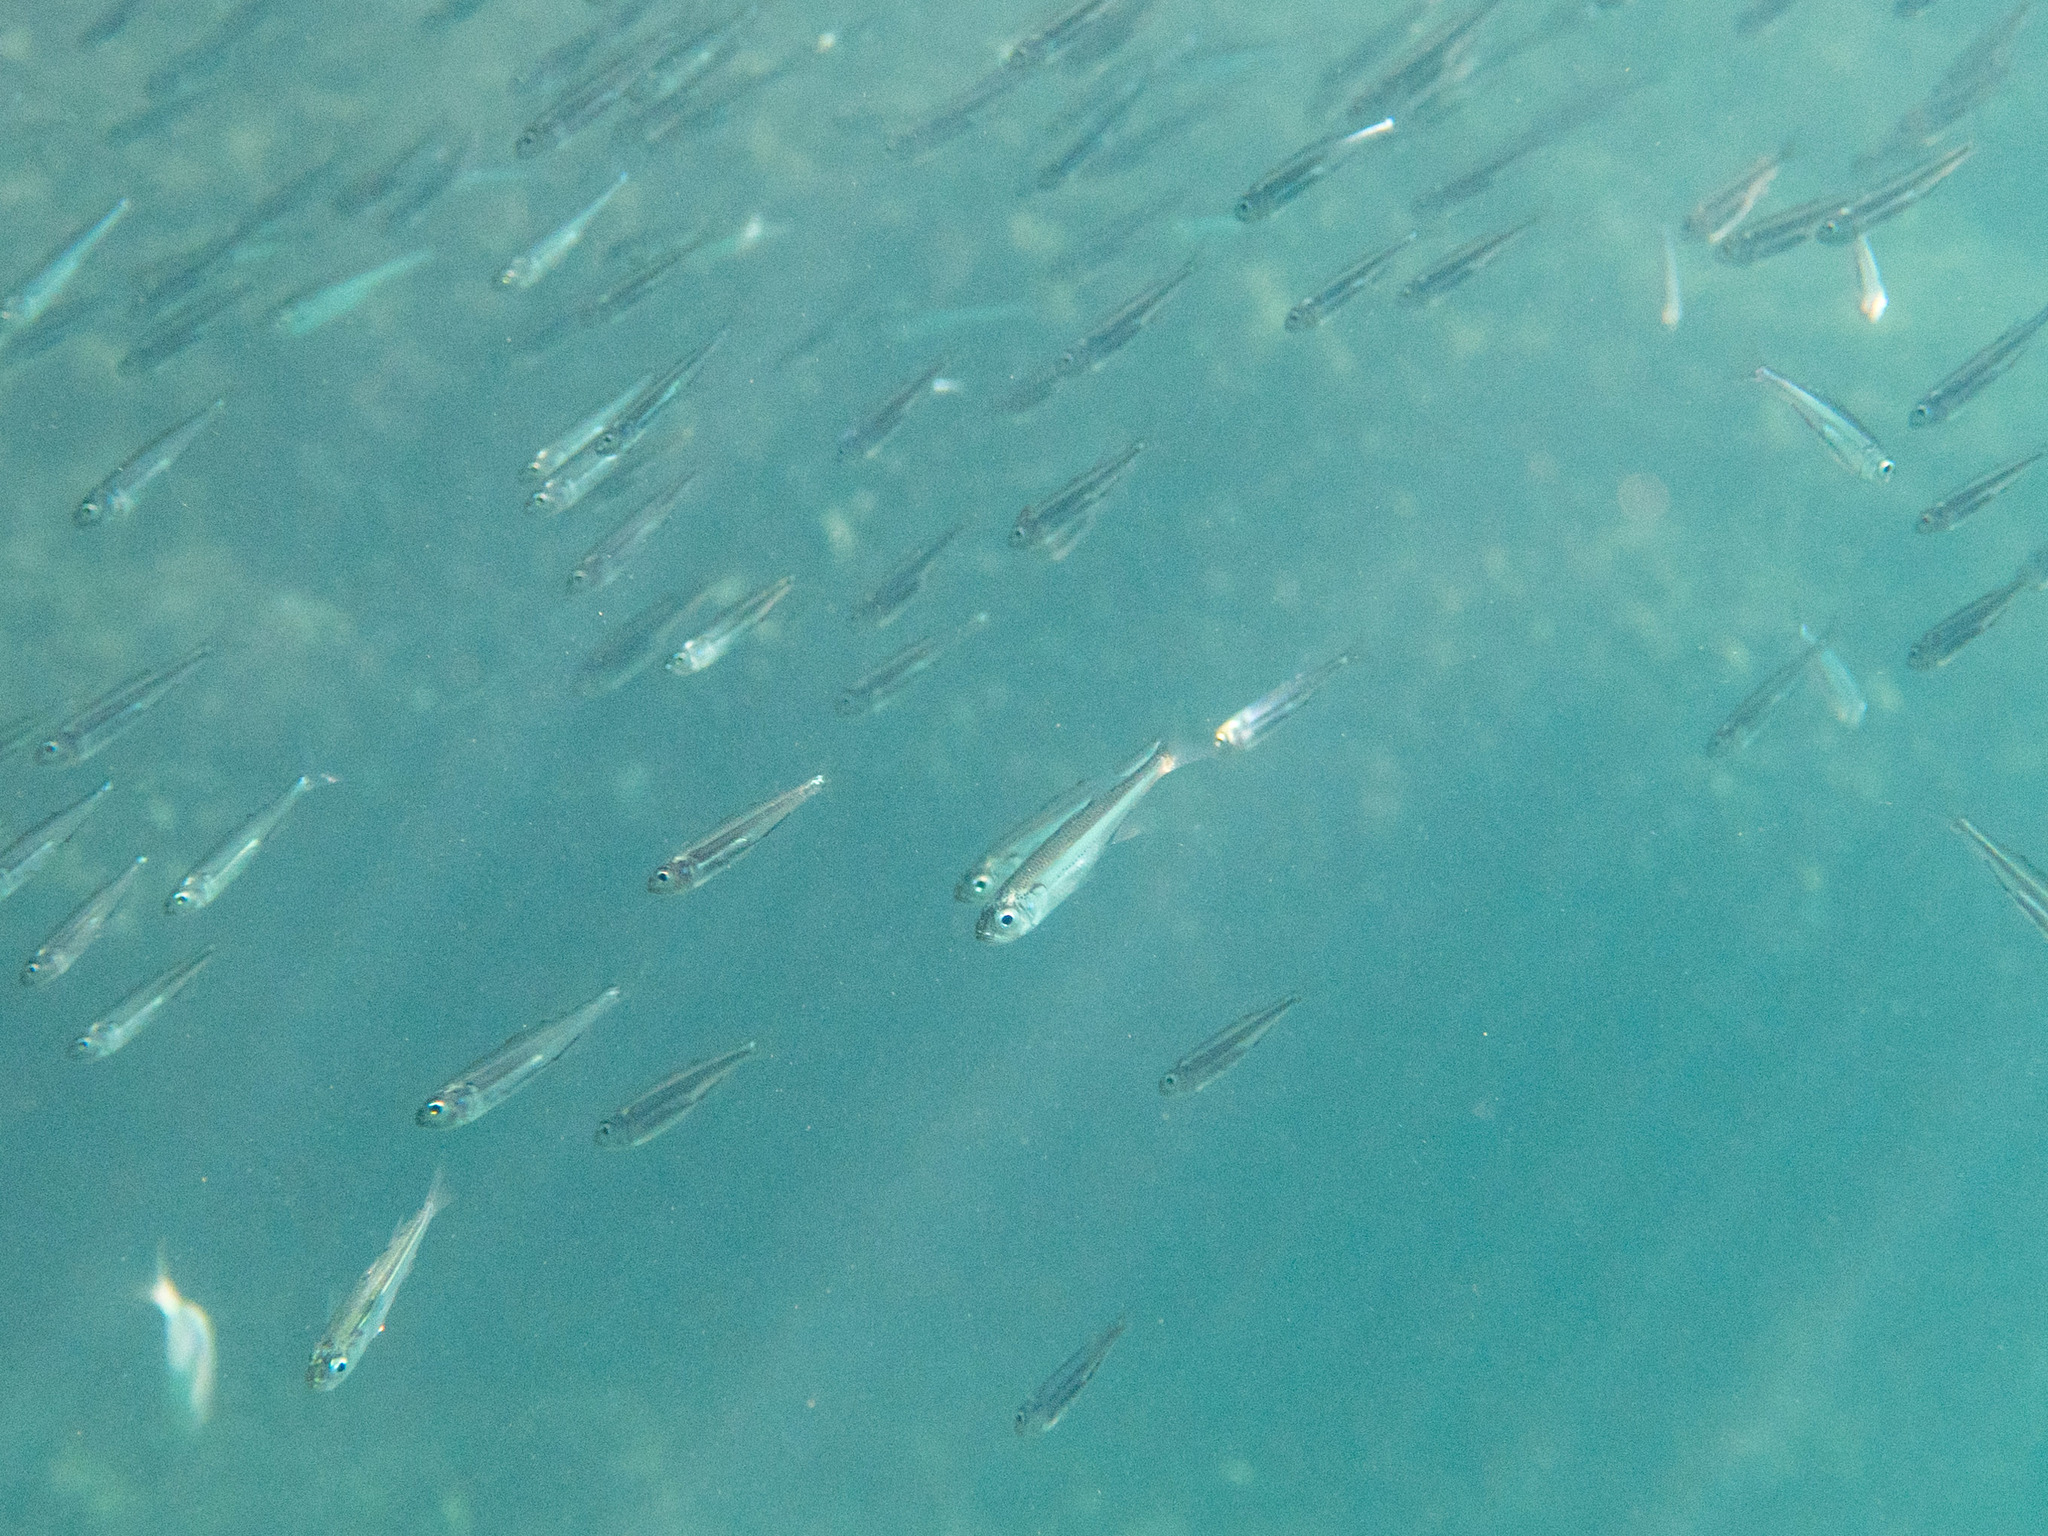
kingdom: Animalia
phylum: Chordata
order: Atheriniformes
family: Atherinidae
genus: Atherina
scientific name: Atherina boyeri
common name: Big-scale sand smelt
